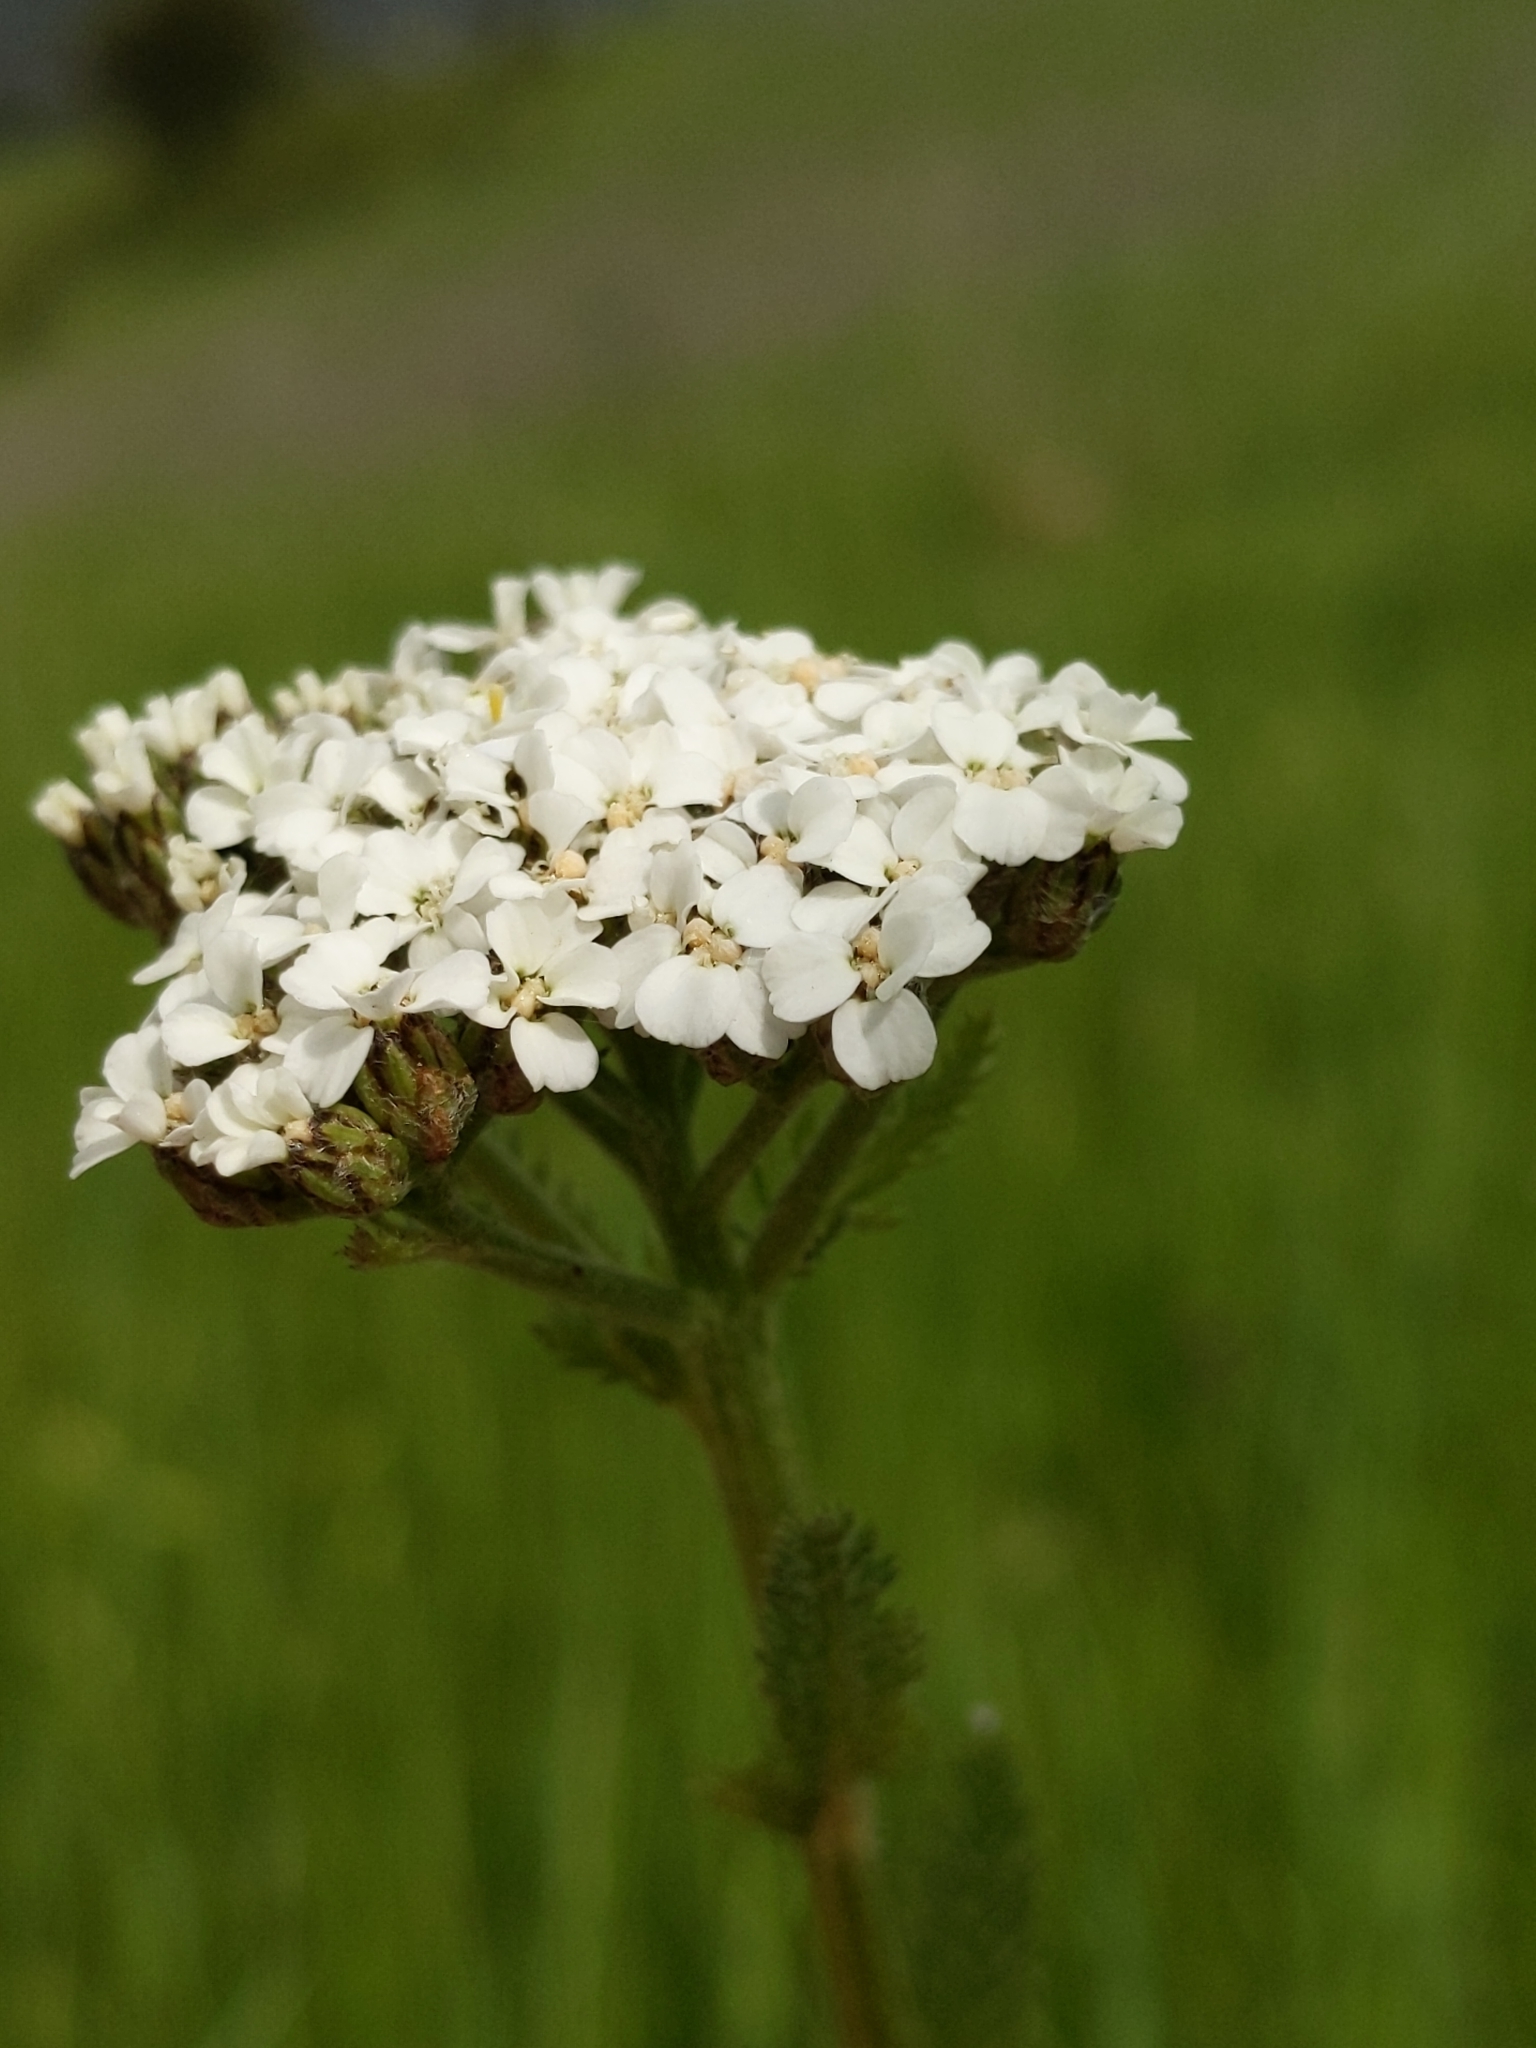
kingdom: Plantae
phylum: Tracheophyta
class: Magnoliopsida
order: Asterales
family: Asteraceae
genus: Achillea
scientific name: Achillea millefolium
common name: Yarrow
